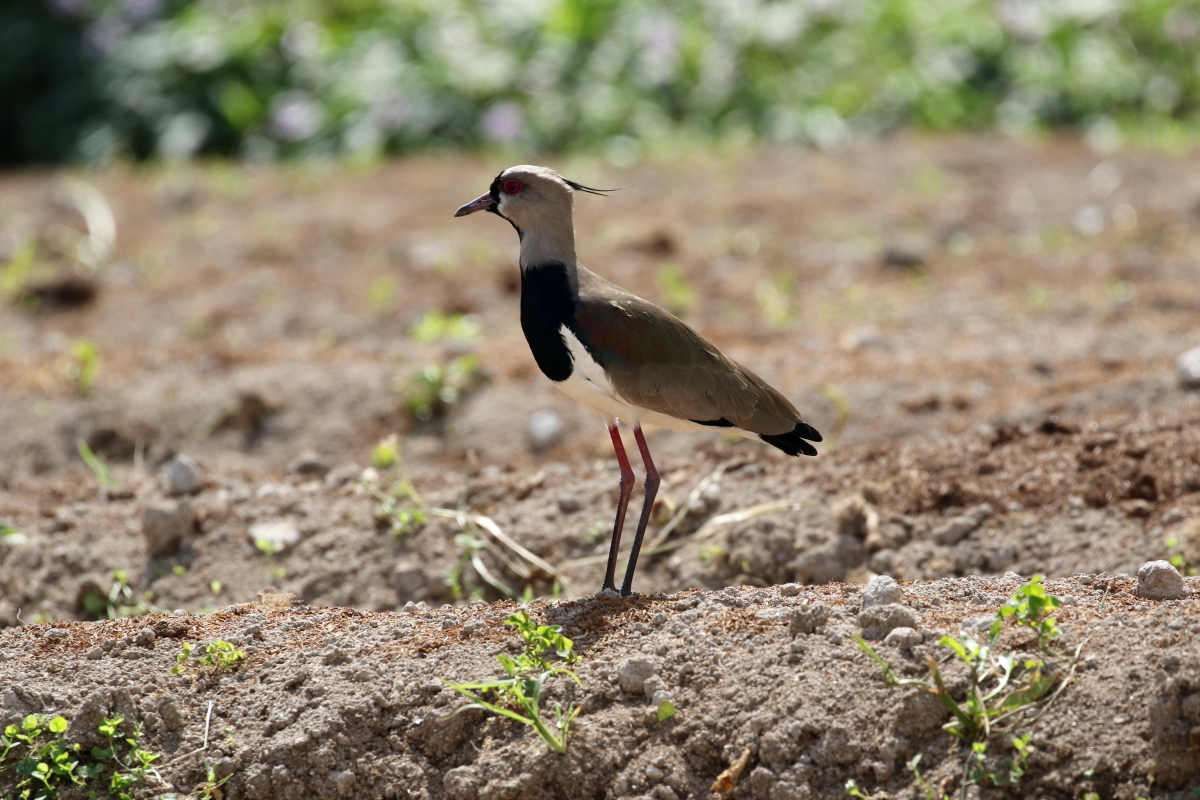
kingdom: Animalia
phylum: Chordata
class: Aves
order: Charadriiformes
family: Charadriidae
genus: Vanellus
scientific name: Vanellus chilensis
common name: Southern lapwing
